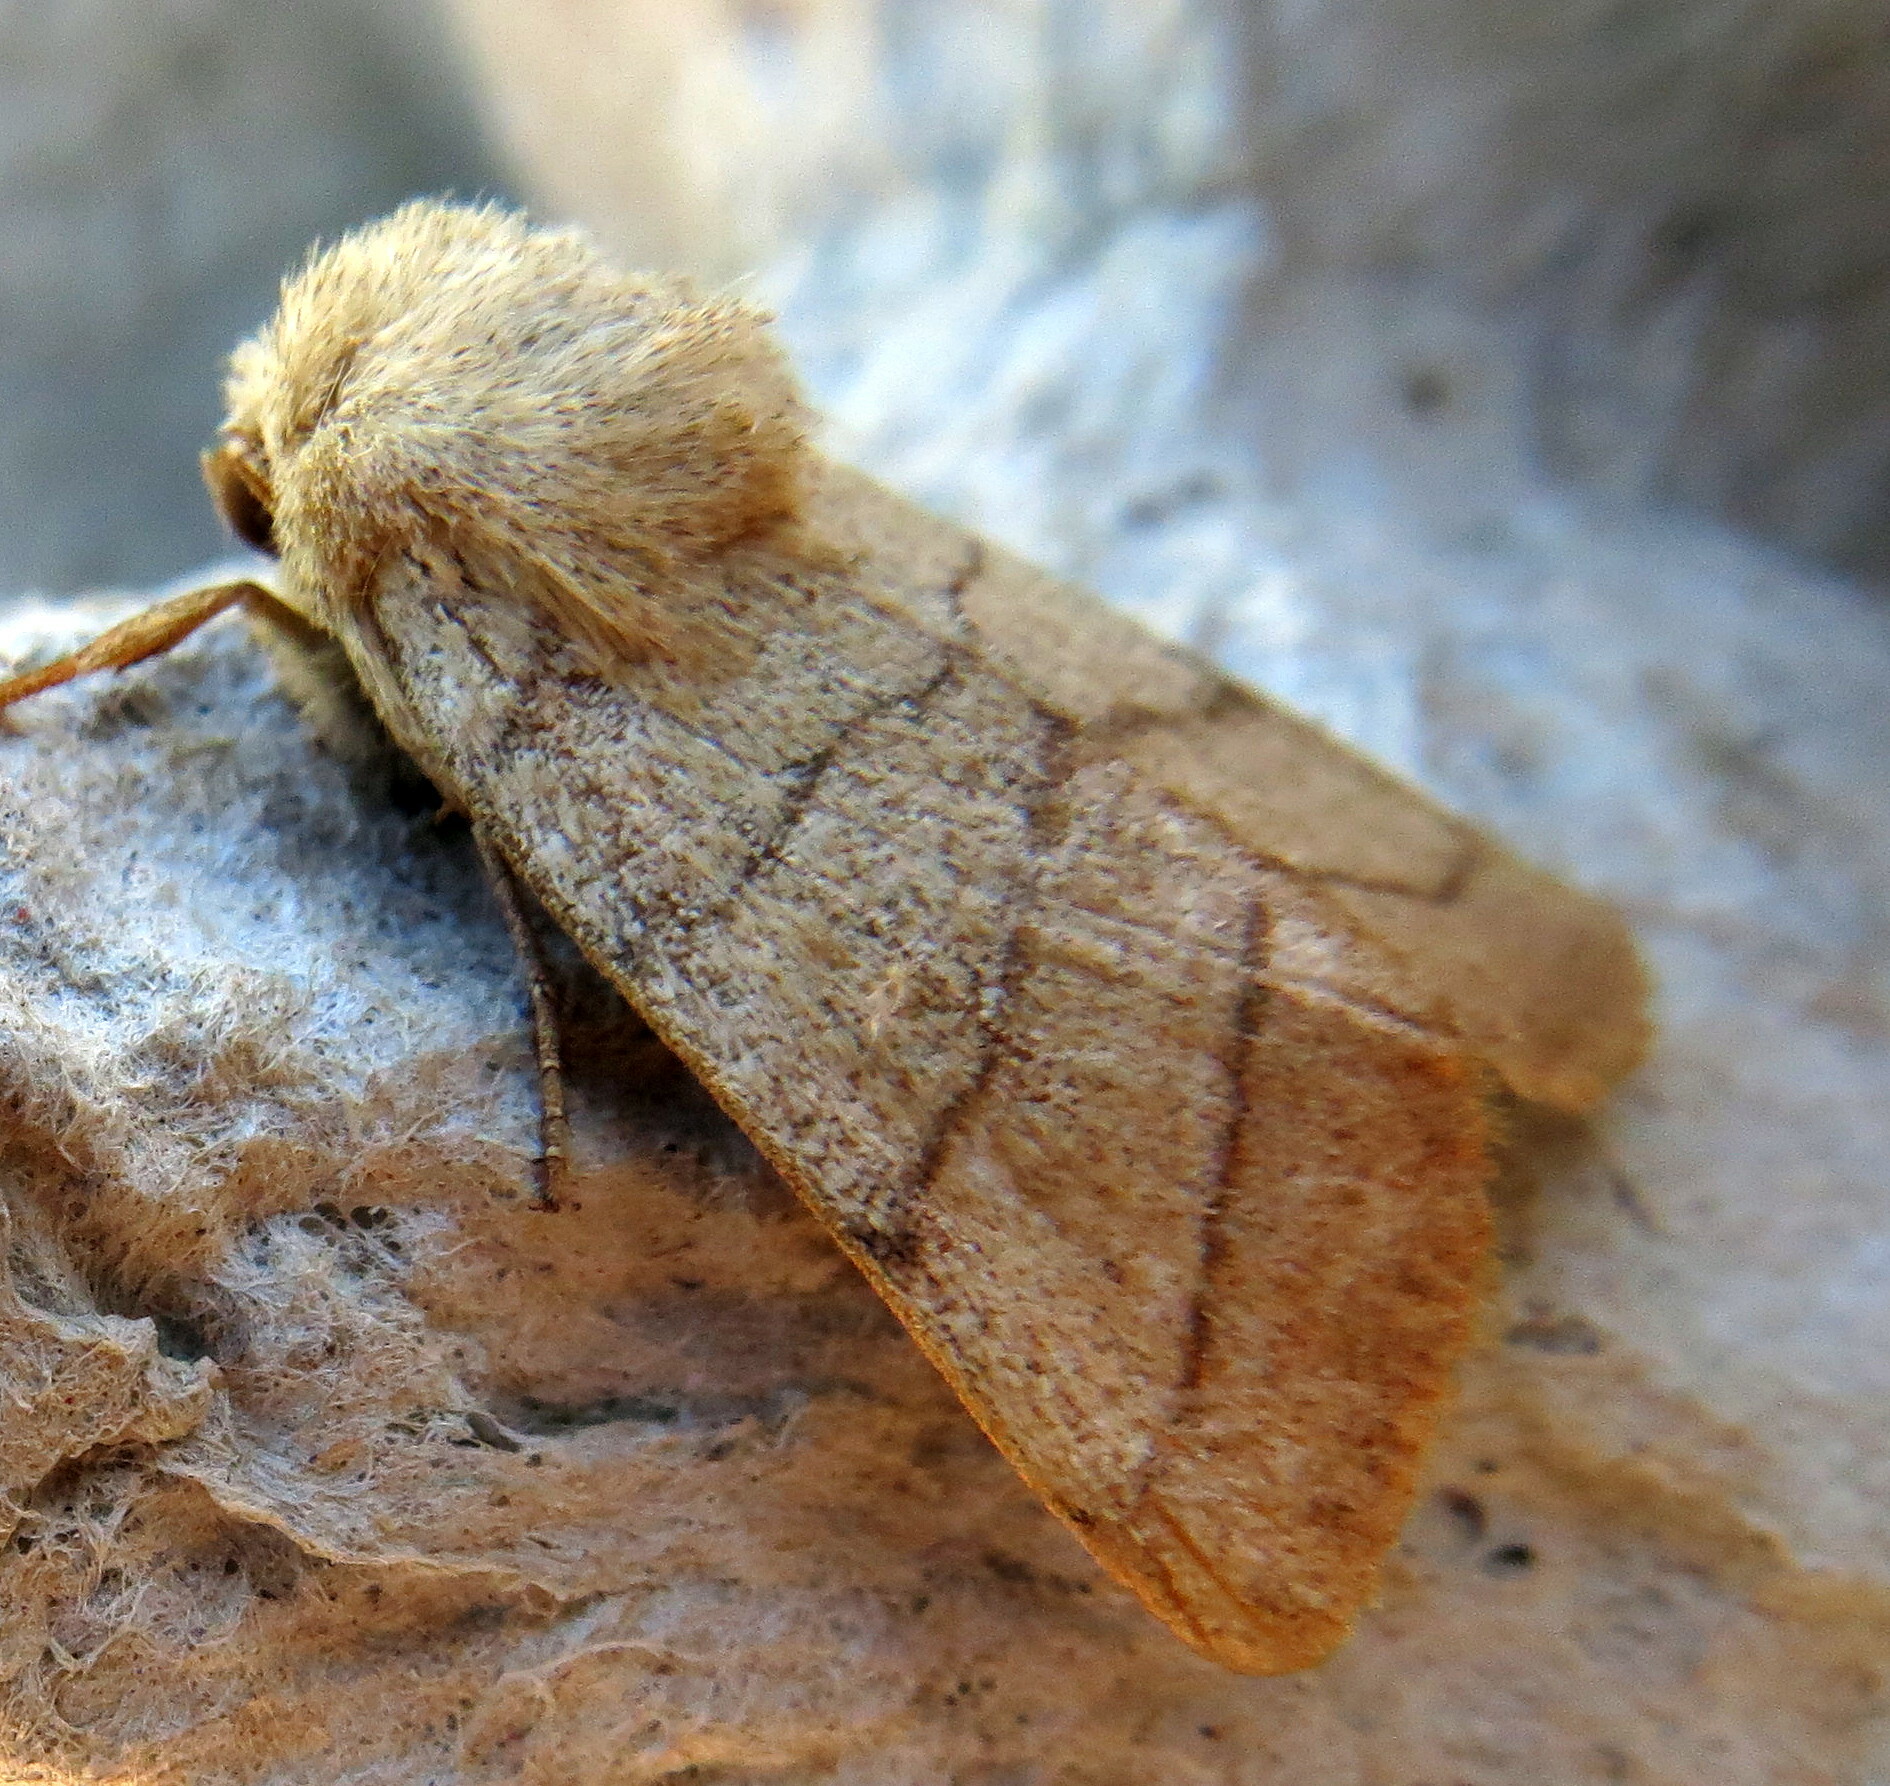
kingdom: Animalia
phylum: Arthropoda
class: Insecta
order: Lepidoptera
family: Noctuidae
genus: Charanyca
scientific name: Charanyca trigrammica
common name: Treble lines
